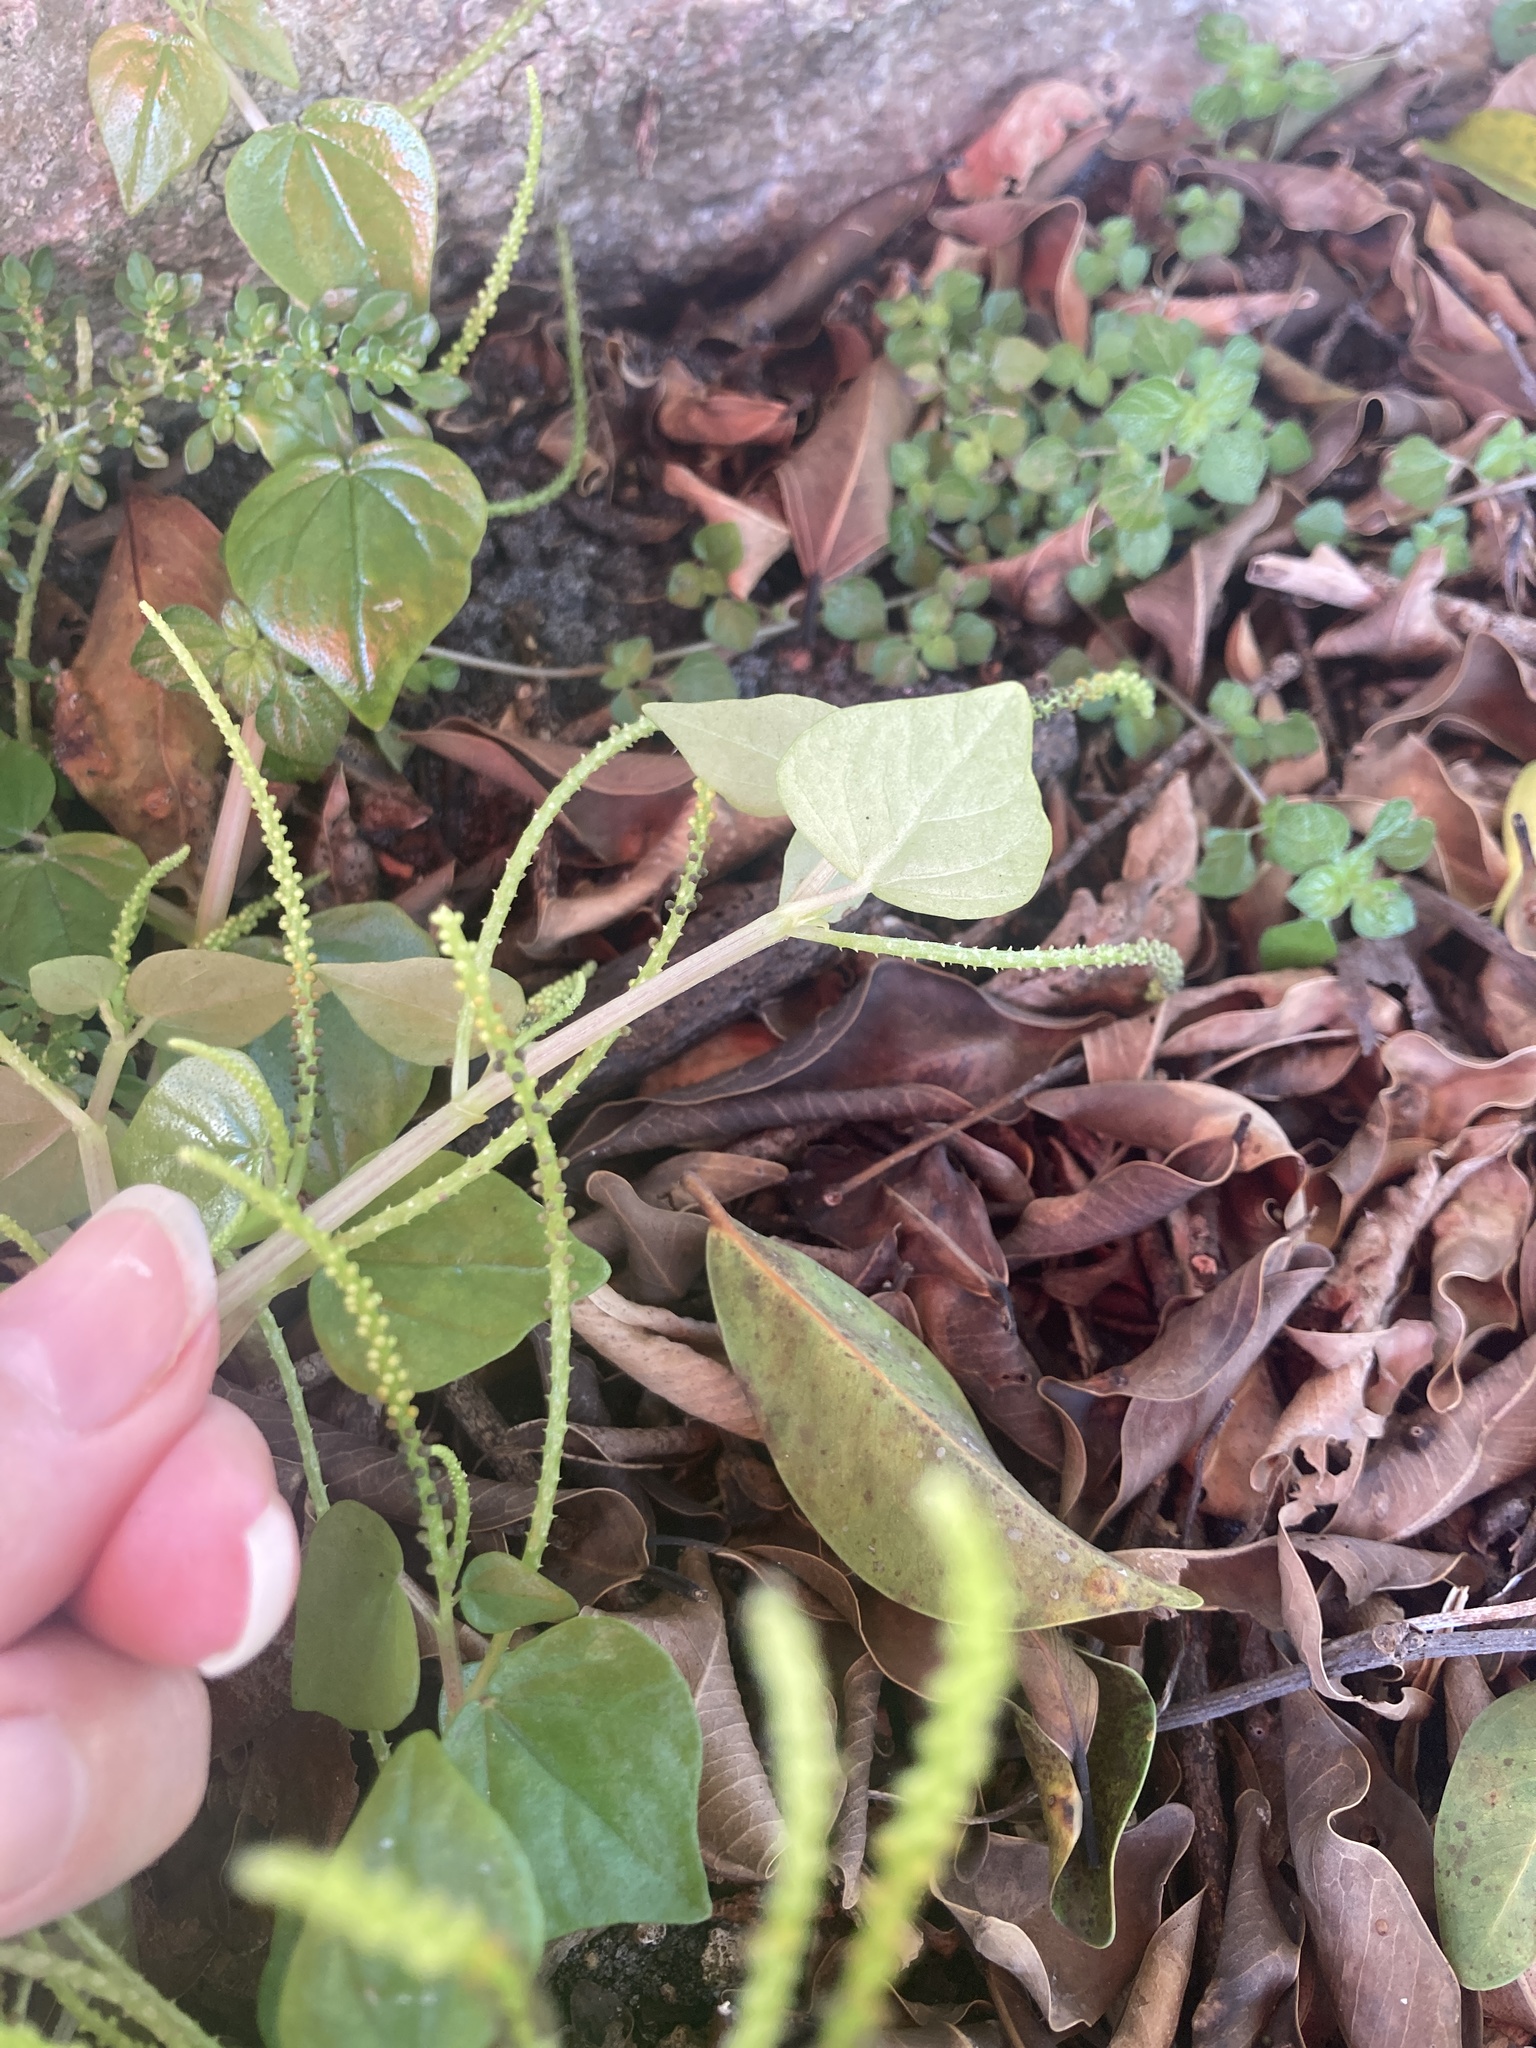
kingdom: Plantae
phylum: Tracheophyta
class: Magnoliopsida
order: Piperales
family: Piperaceae
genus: Peperomia
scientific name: Peperomia pellucida
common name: Man to man
